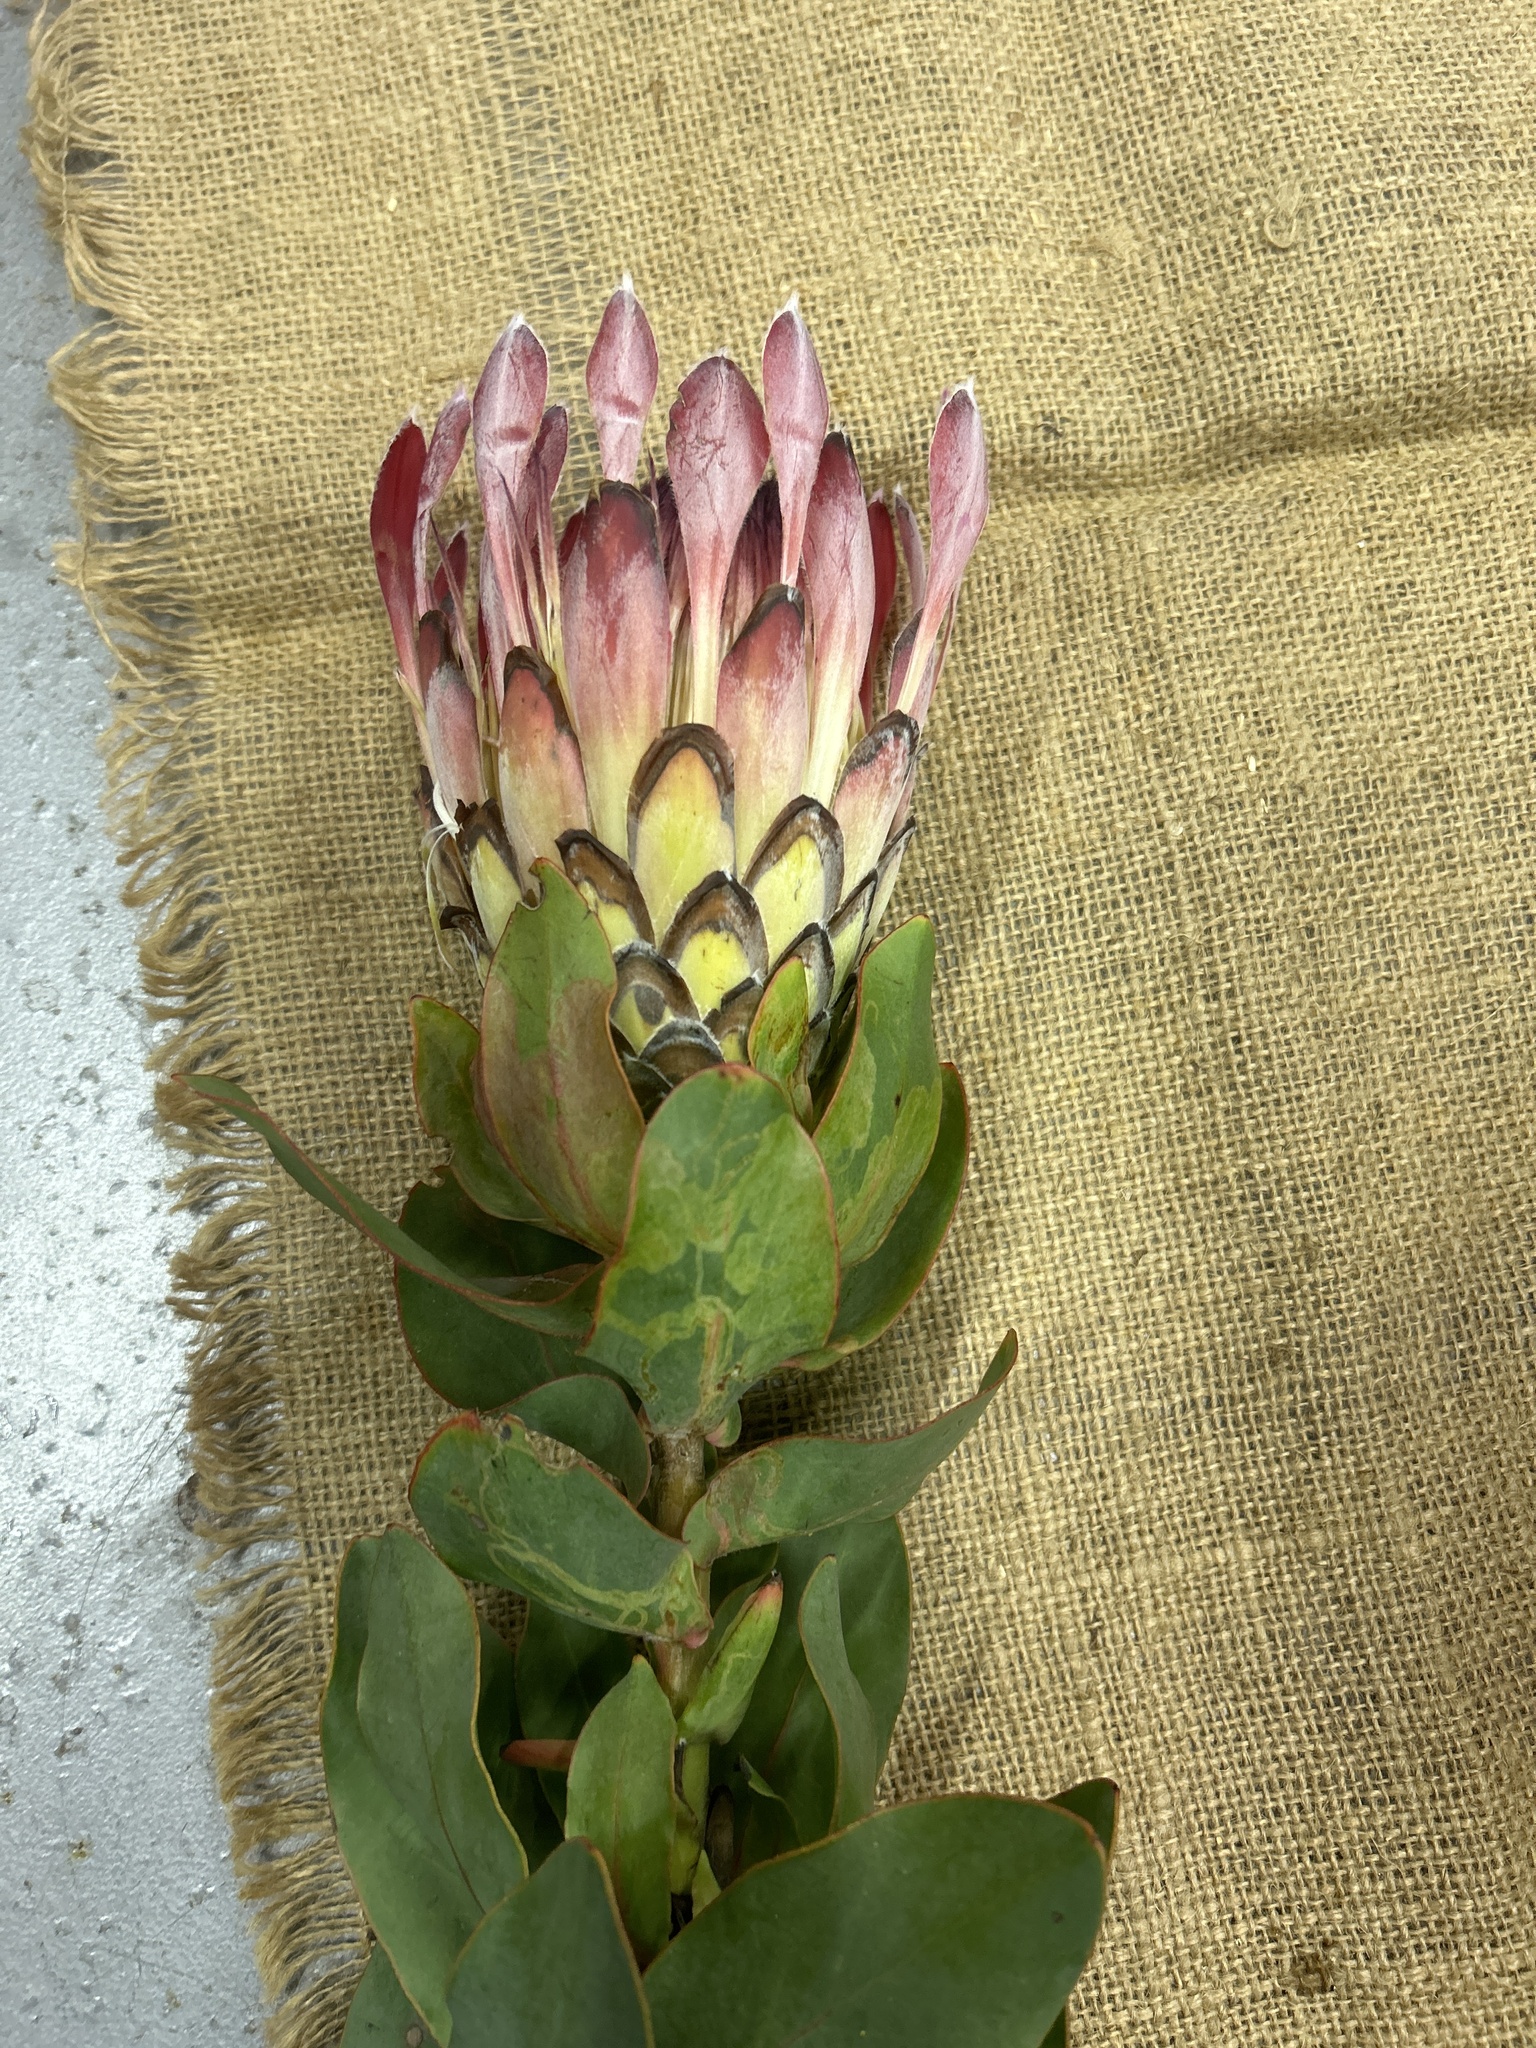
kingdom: Plantae
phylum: Tracheophyta
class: Magnoliopsida
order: Proteales
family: Proteaceae
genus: Protea
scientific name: Protea eximia
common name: Broad-leaved sugarbush
